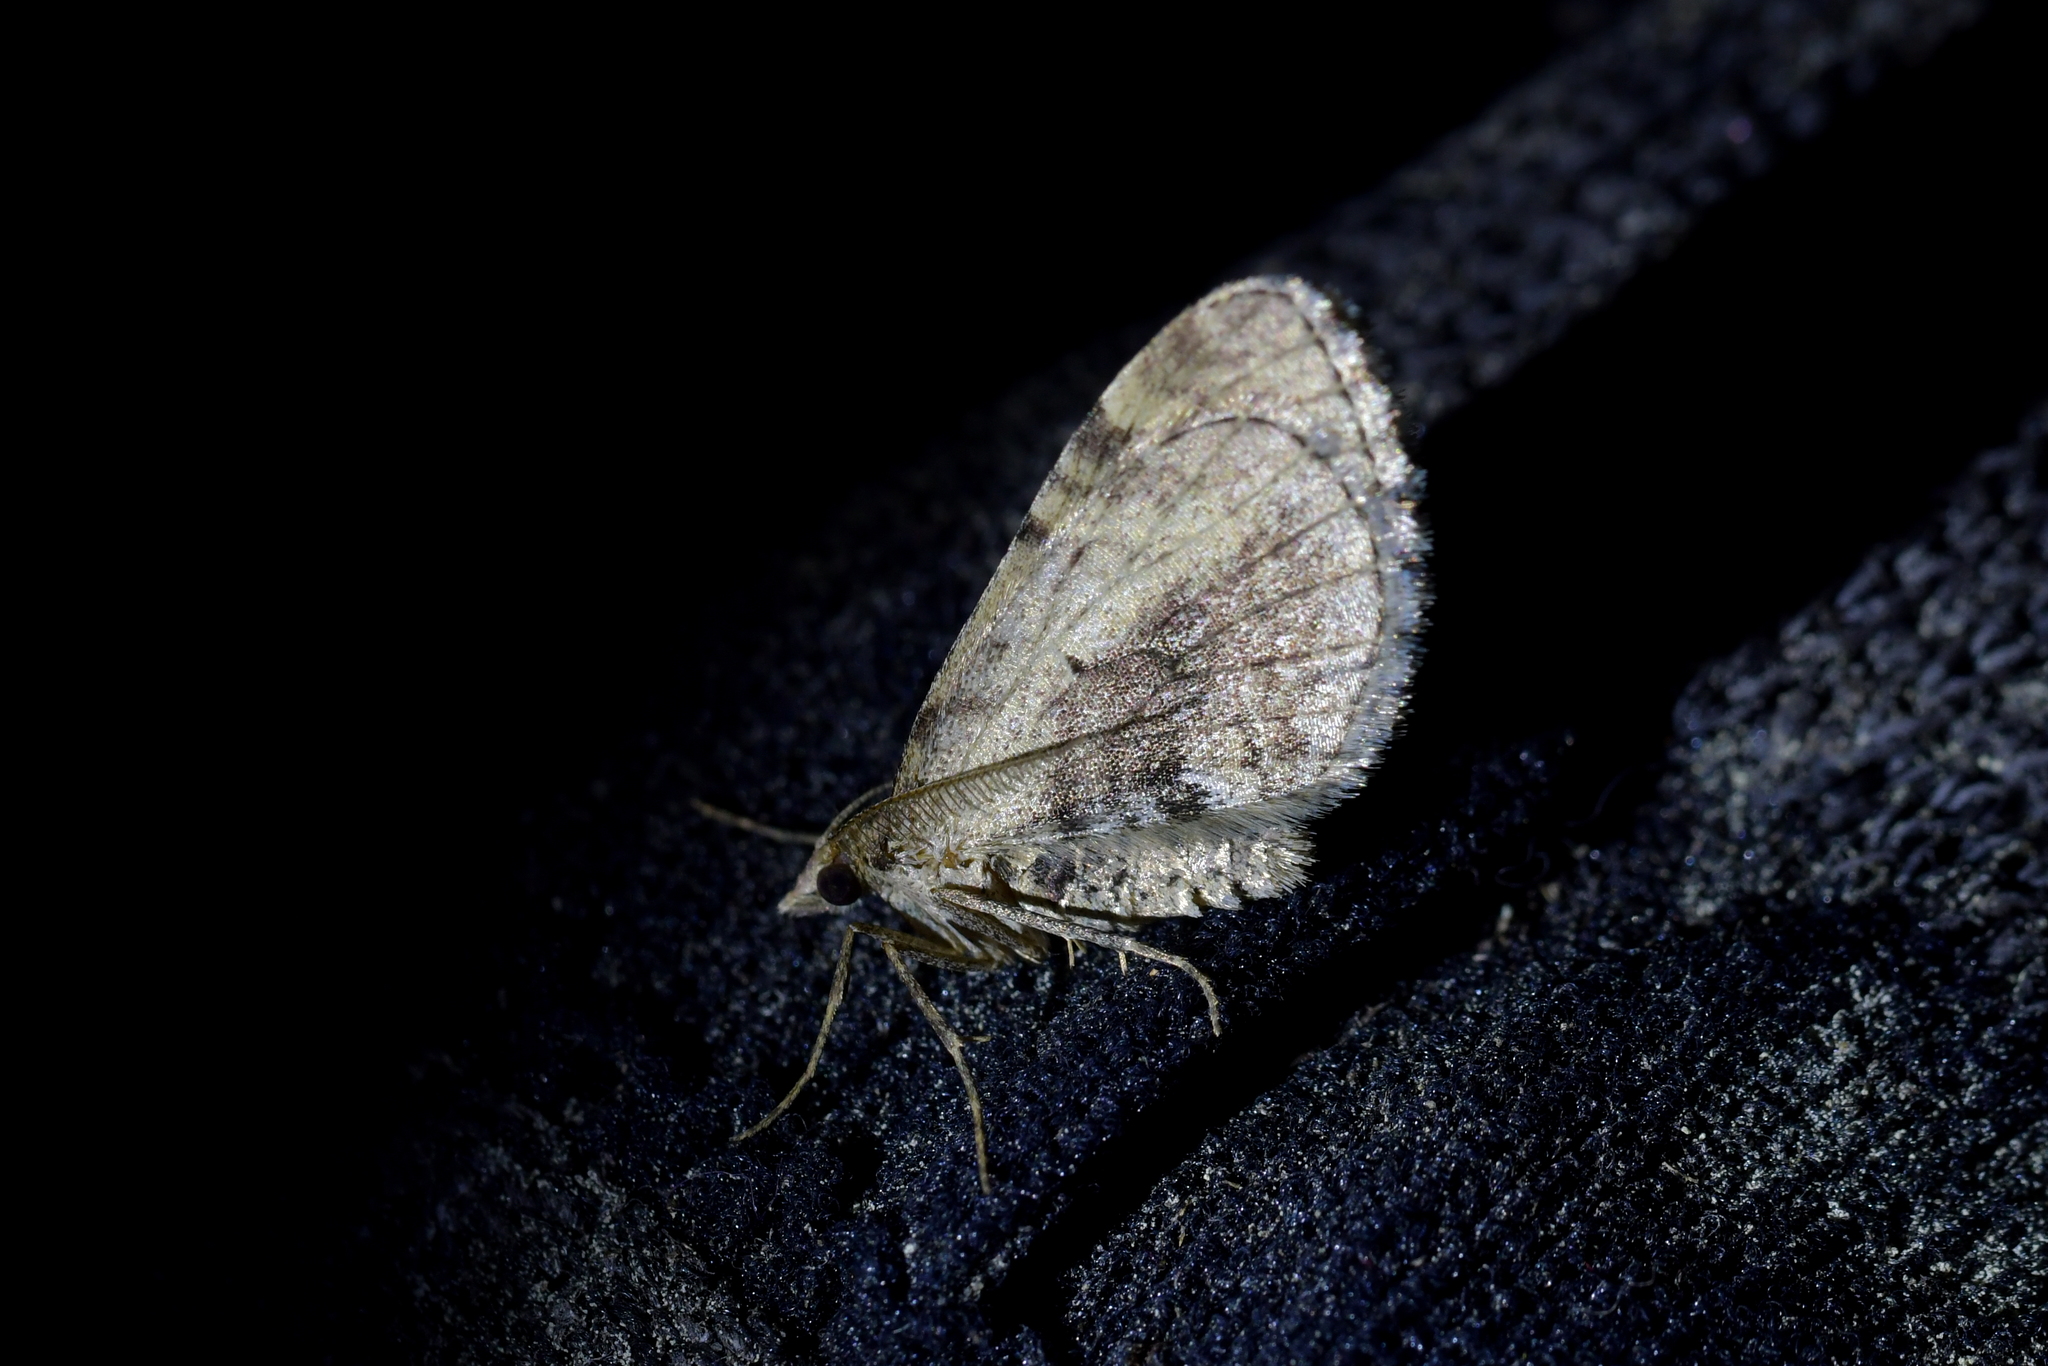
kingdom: Animalia
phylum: Arthropoda
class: Insecta
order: Lepidoptera
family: Geometridae
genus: Asaphodes
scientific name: Asaphodes aegrota
